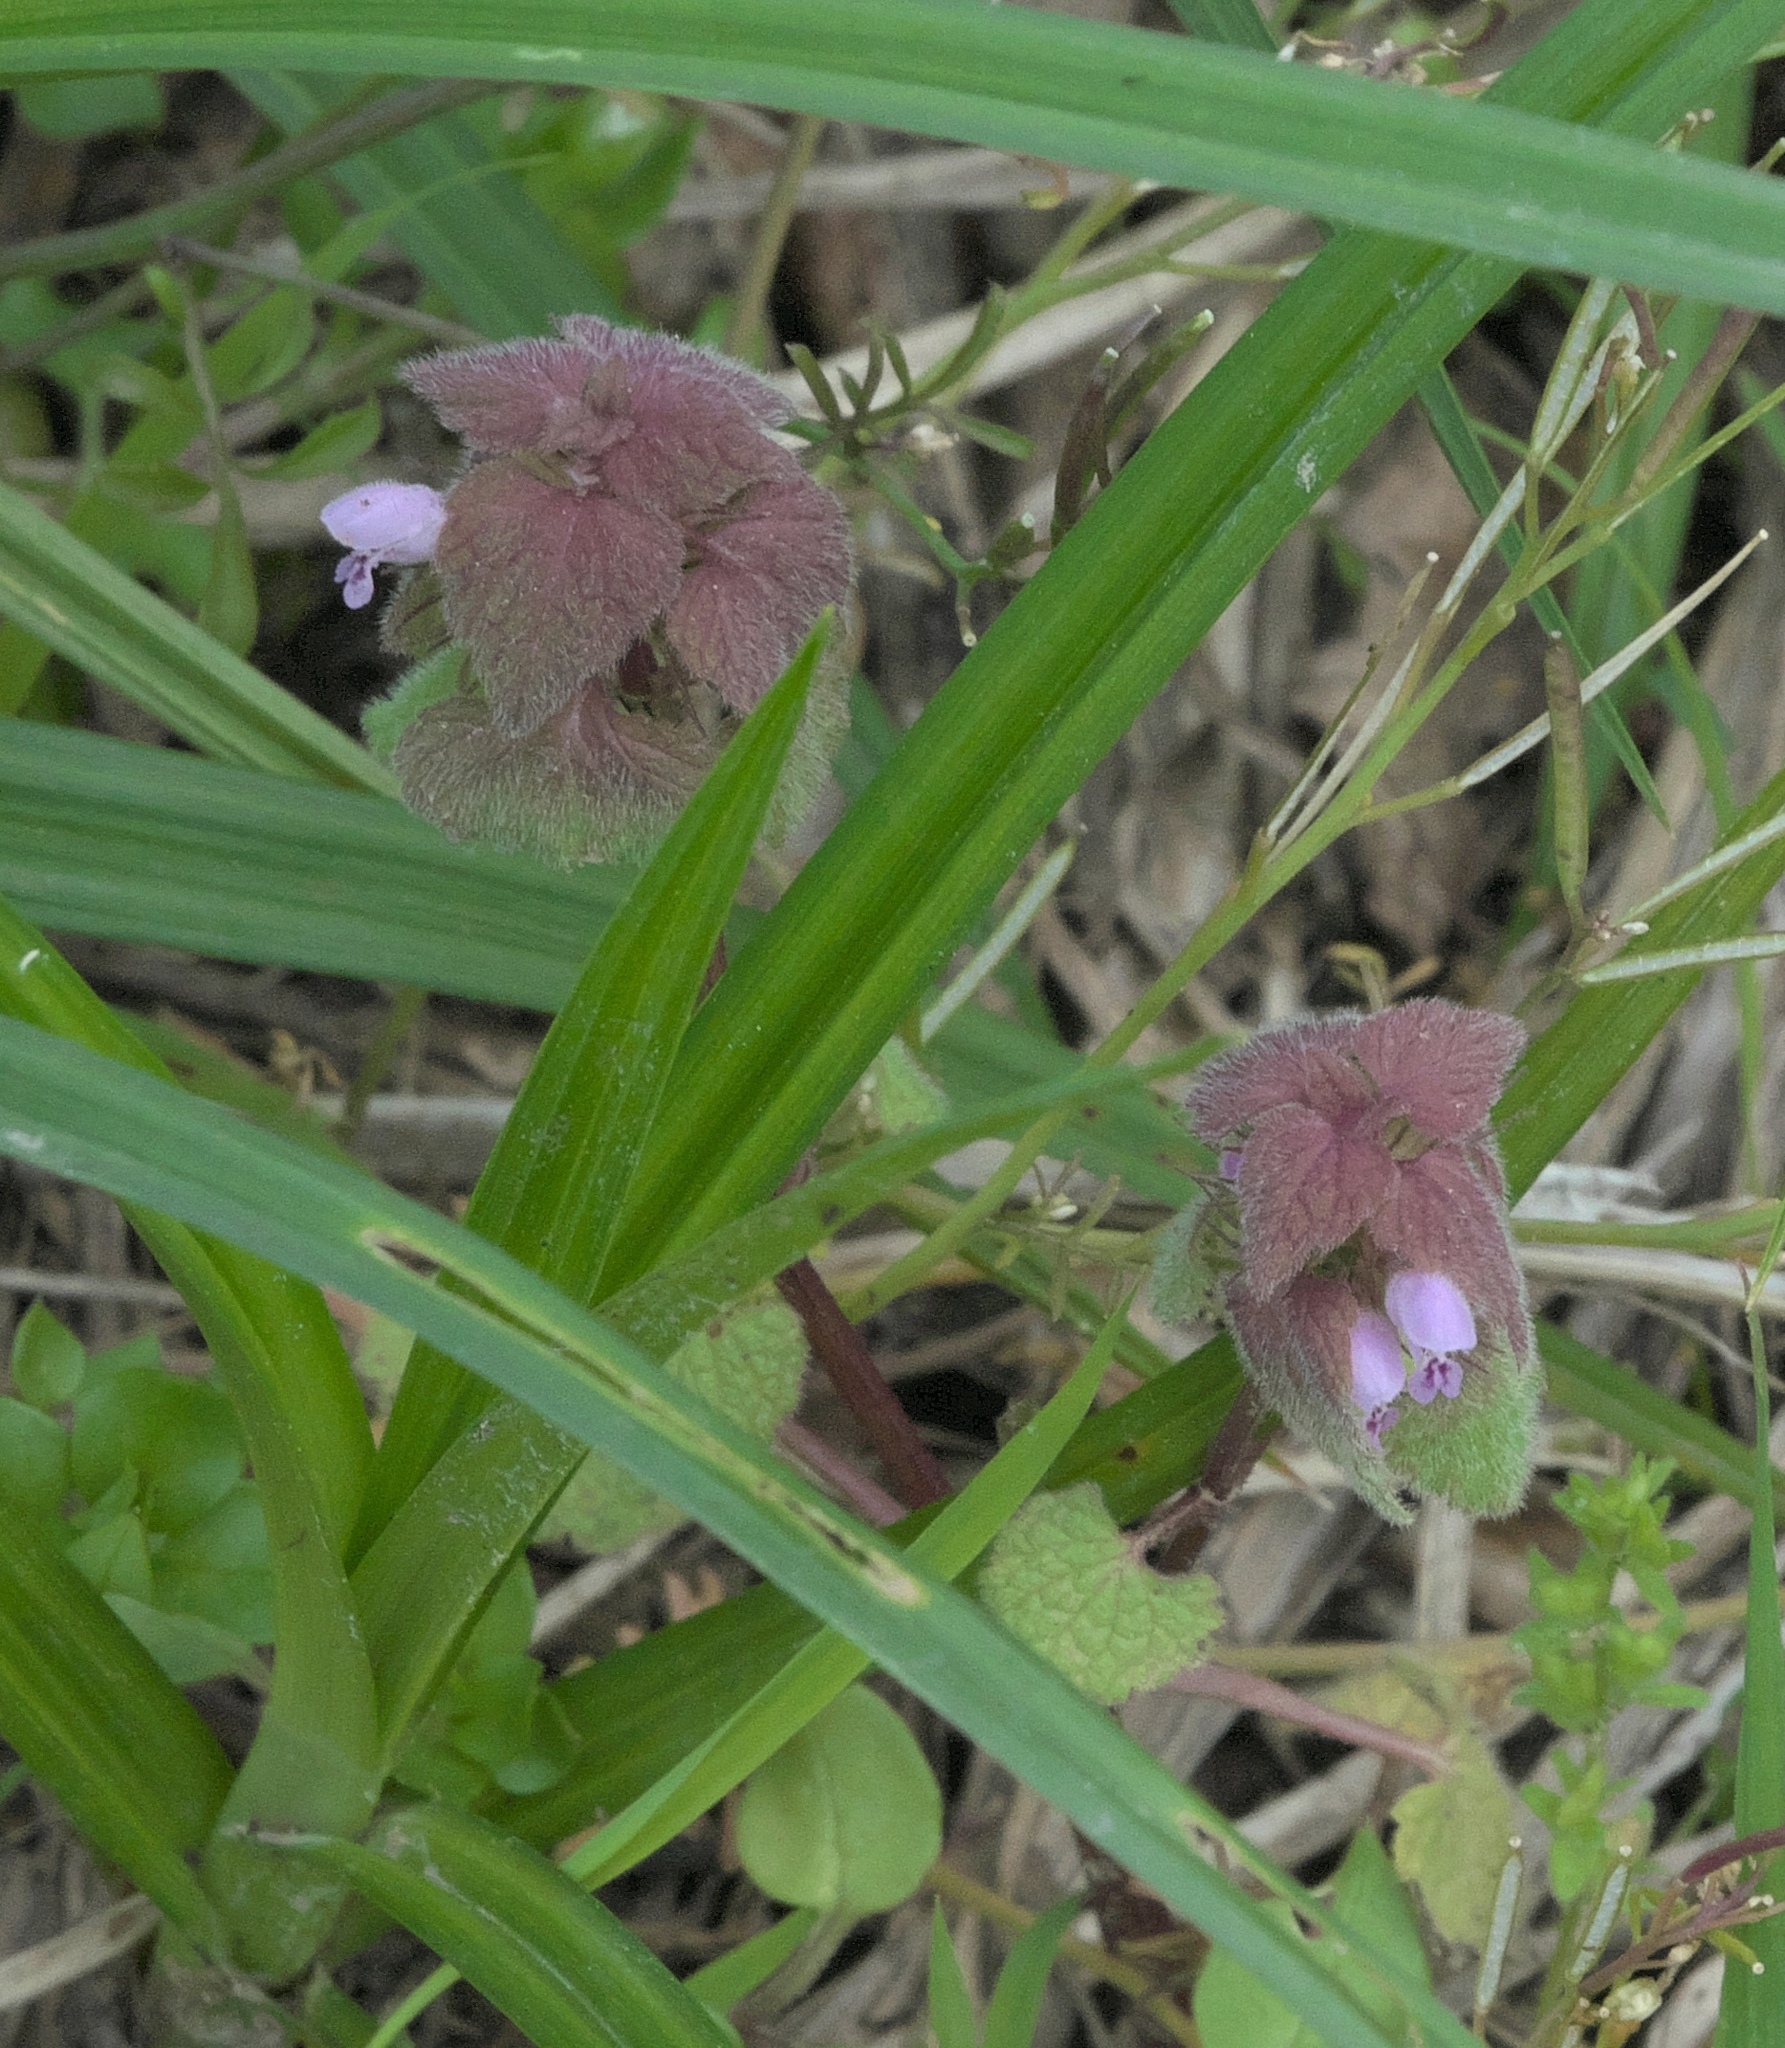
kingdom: Plantae
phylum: Tracheophyta
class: Magnoliopsida
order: Lamiales
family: Lamiaceae
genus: Lamium
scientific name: Lamium purpureum
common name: Red dead-nettle
